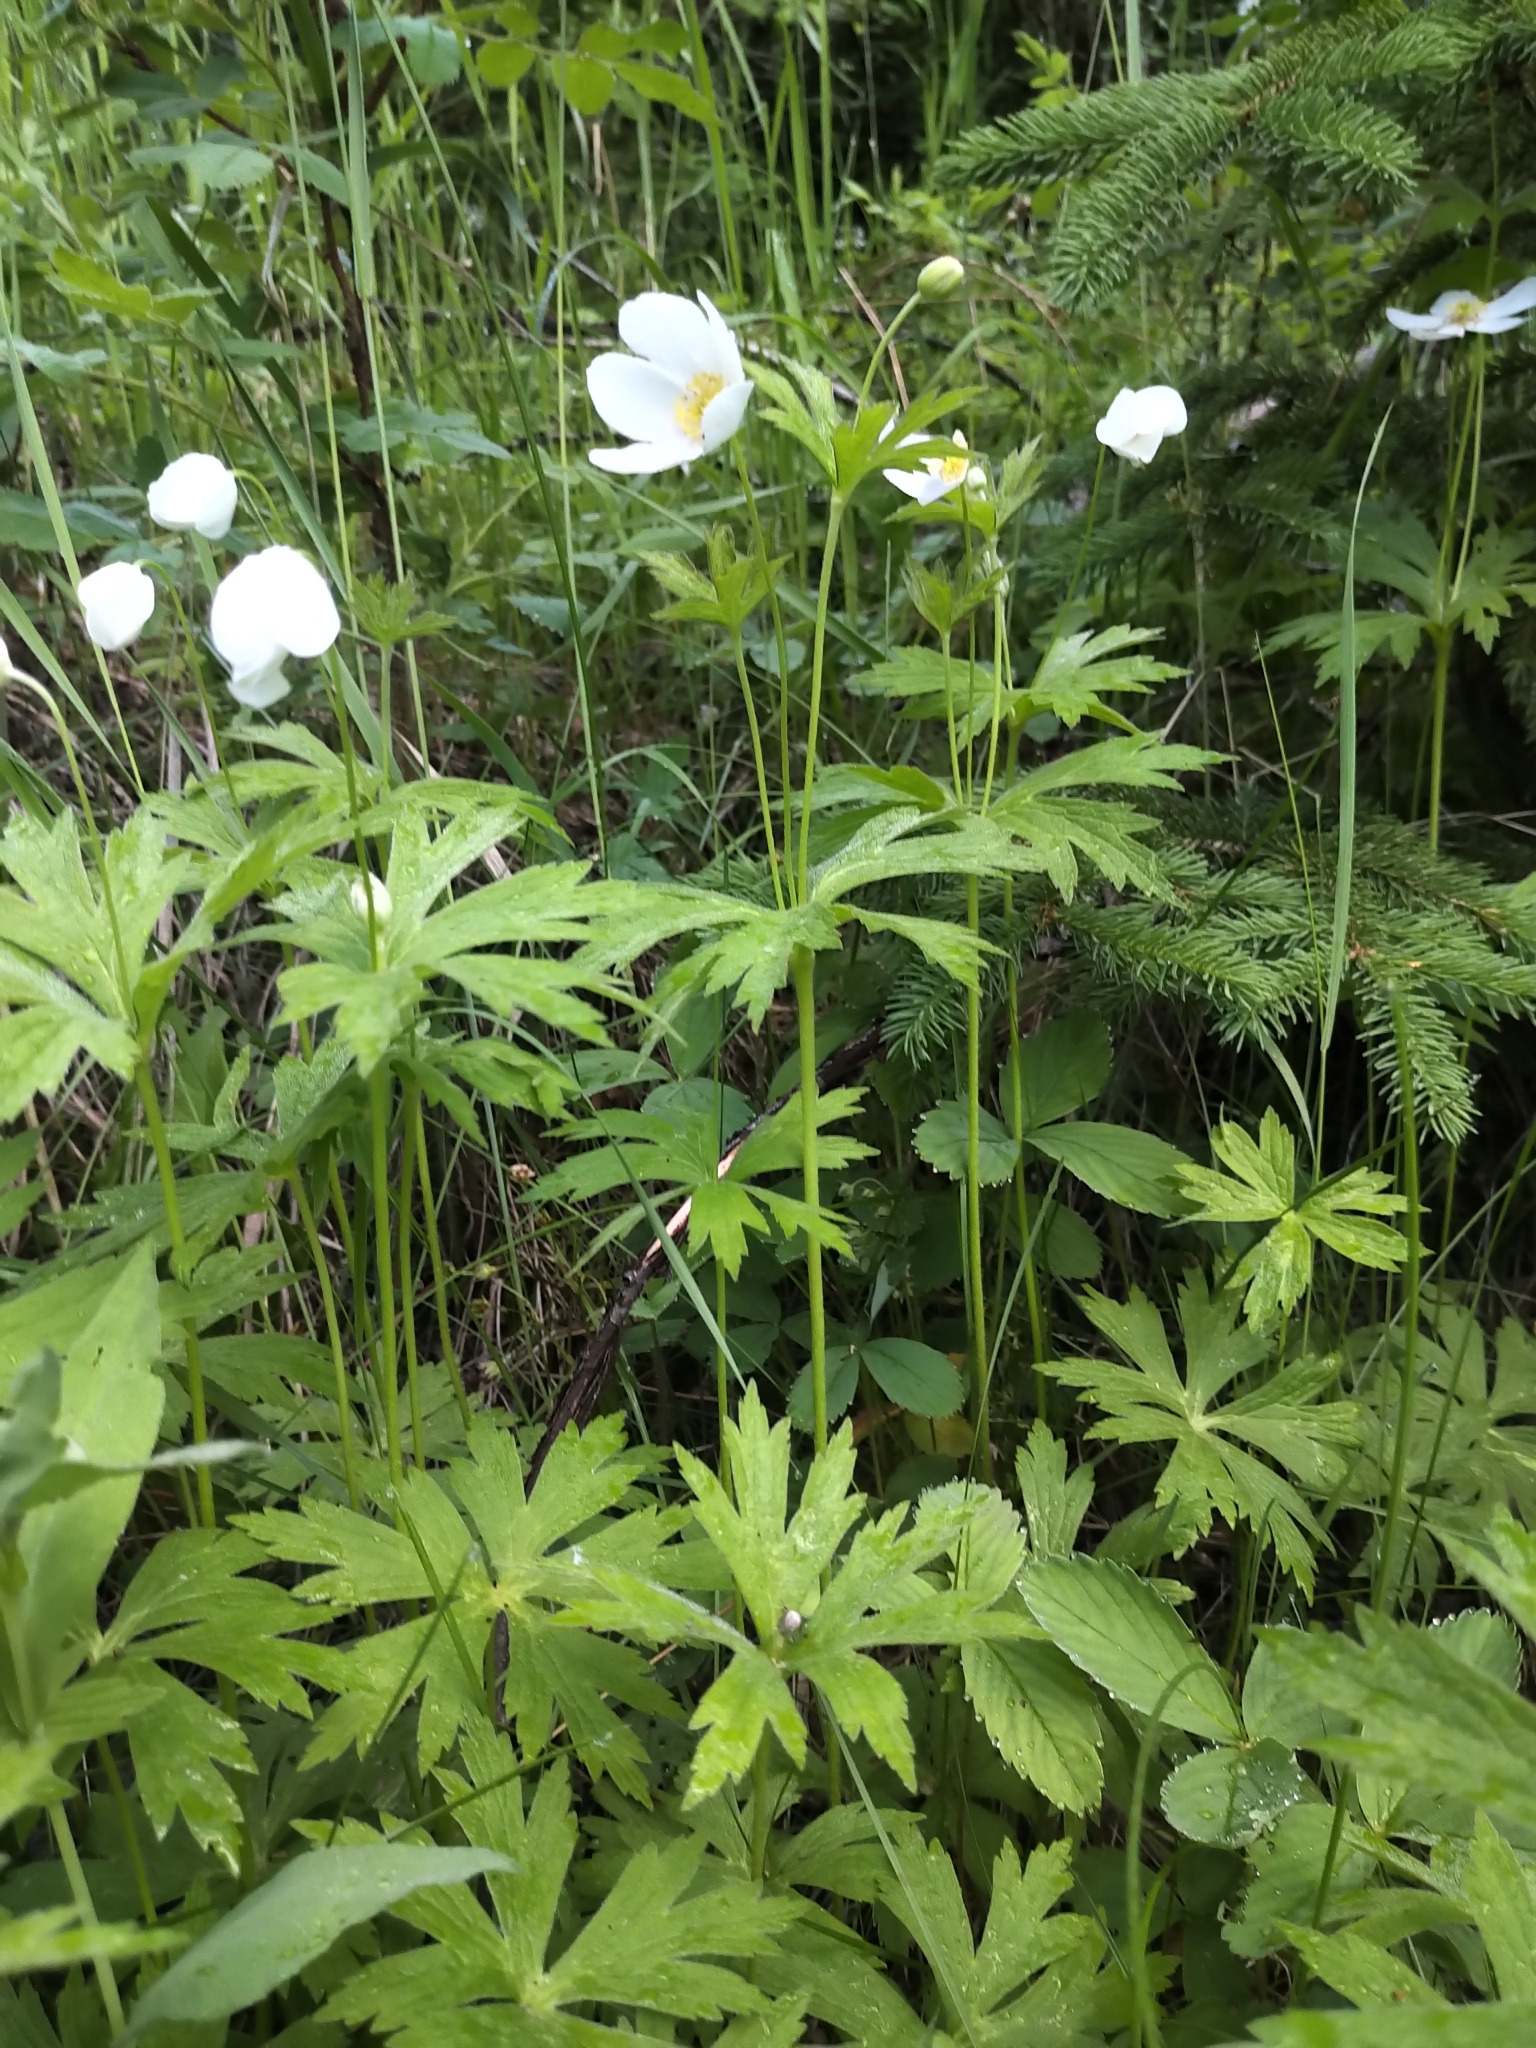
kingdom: Plantae
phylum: Tracheophyta
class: Magnoliopsida
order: Ranunculales
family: Ranunculaceae
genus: Anemonastrum
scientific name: Anemonastrum canadense
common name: Canada anemone
